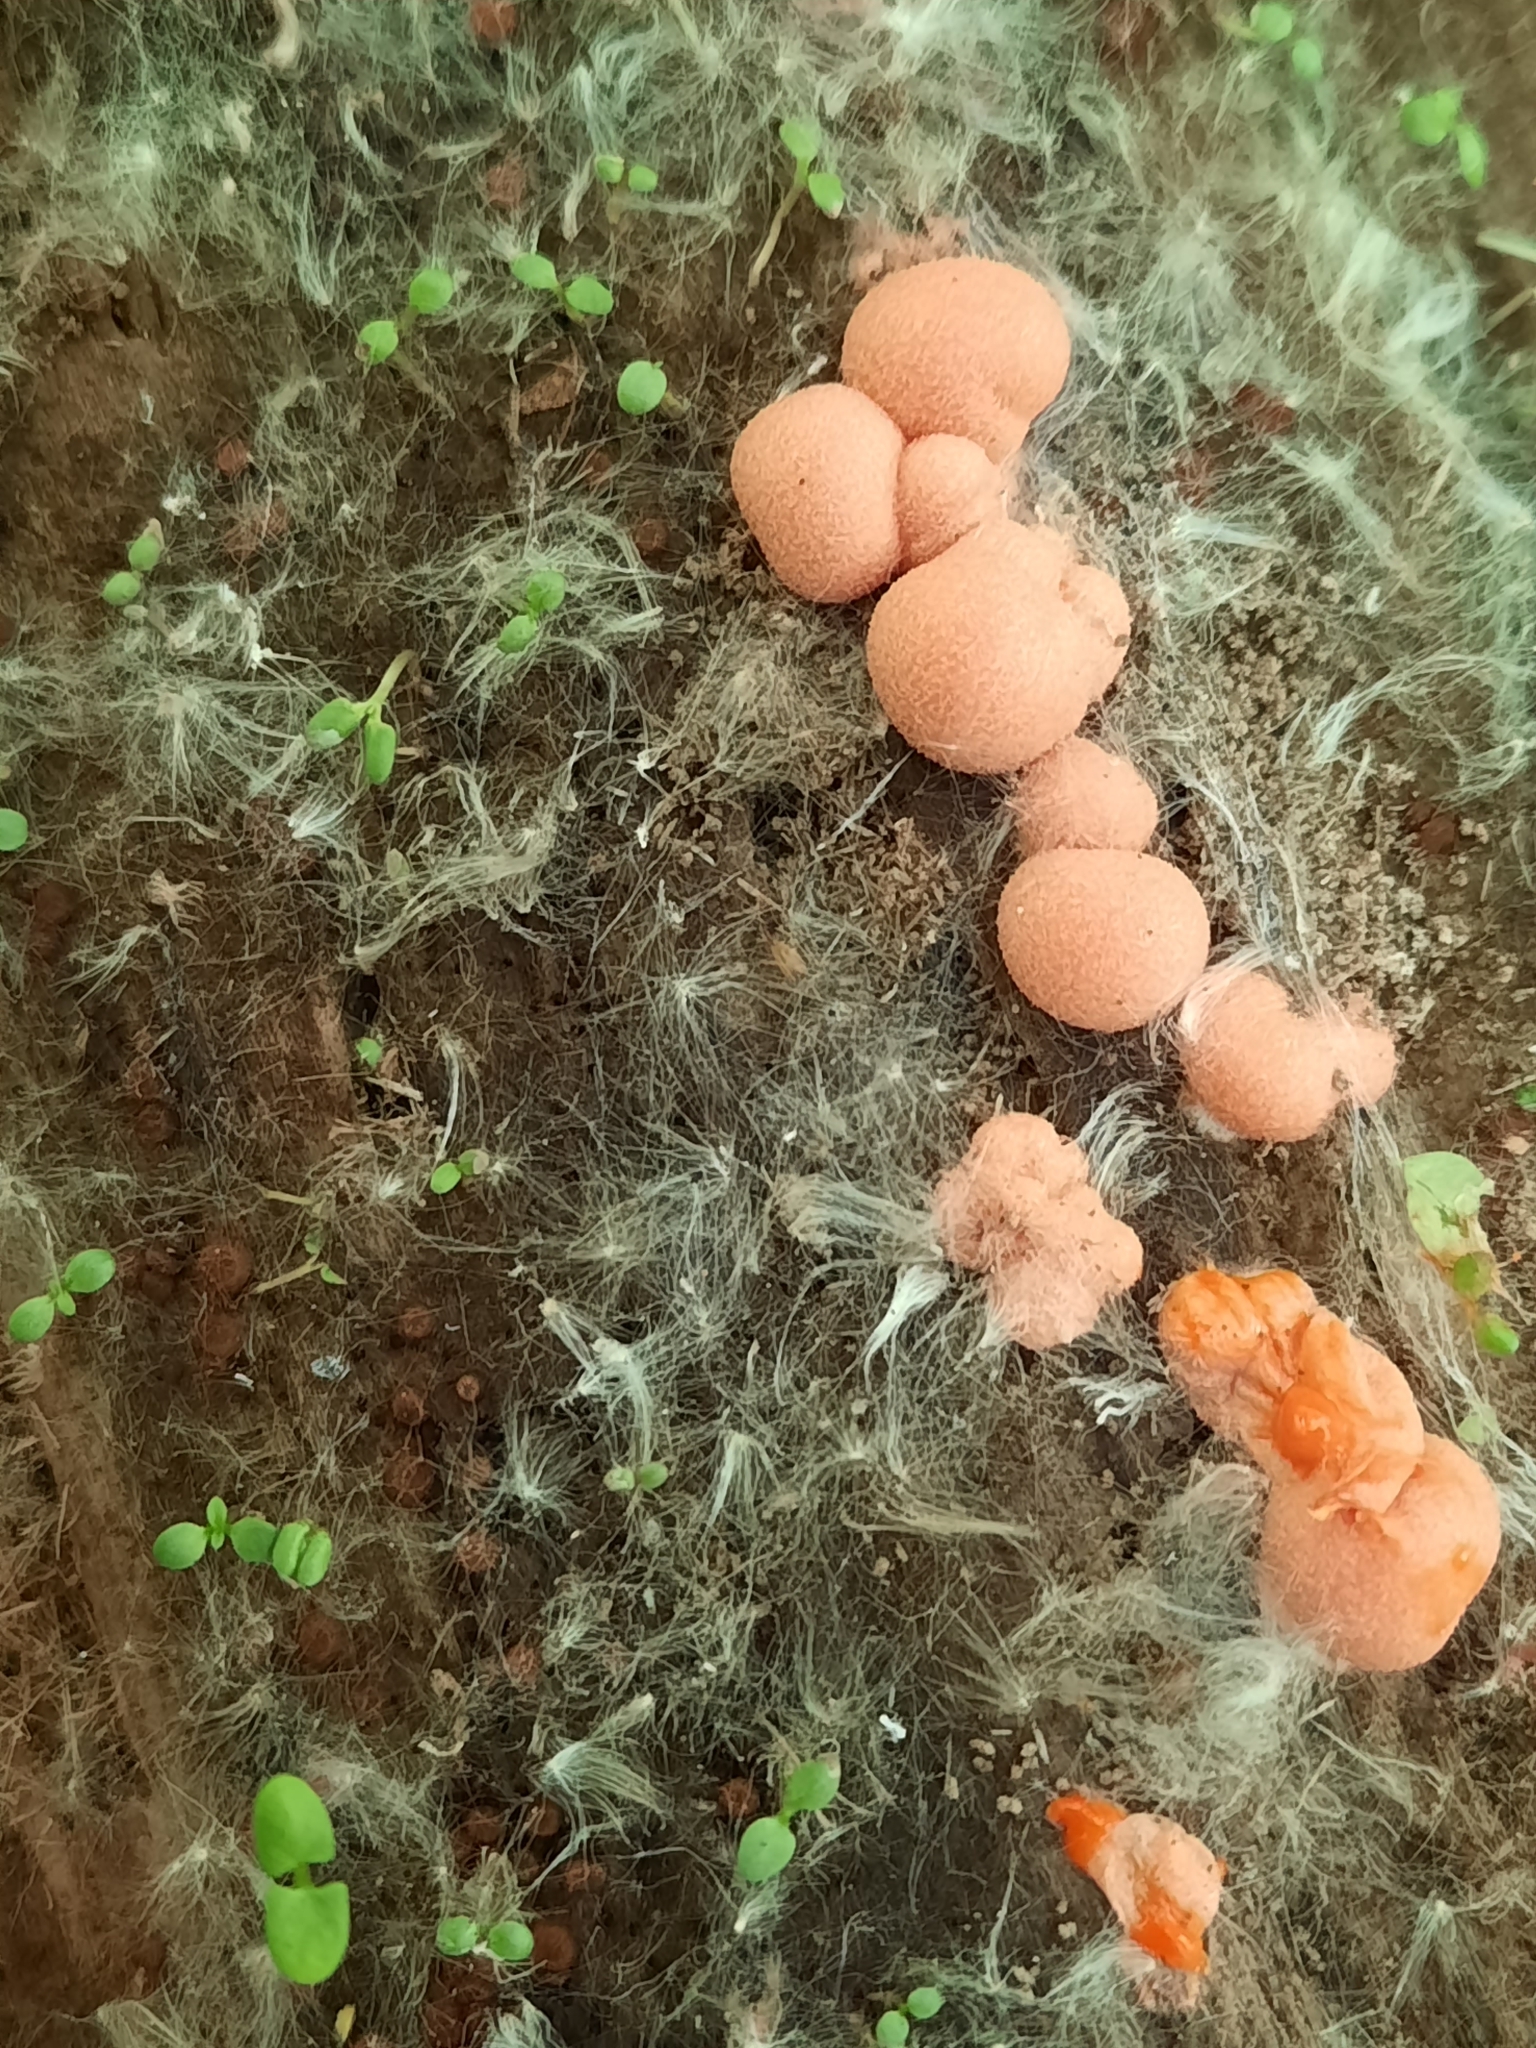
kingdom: Protozoa
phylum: Mycetozoa
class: Myxomycetes
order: Cribrariales
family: Tubiferaceae
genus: Lycogala
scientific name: Lycogala epidendrum
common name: Wolf's milk
